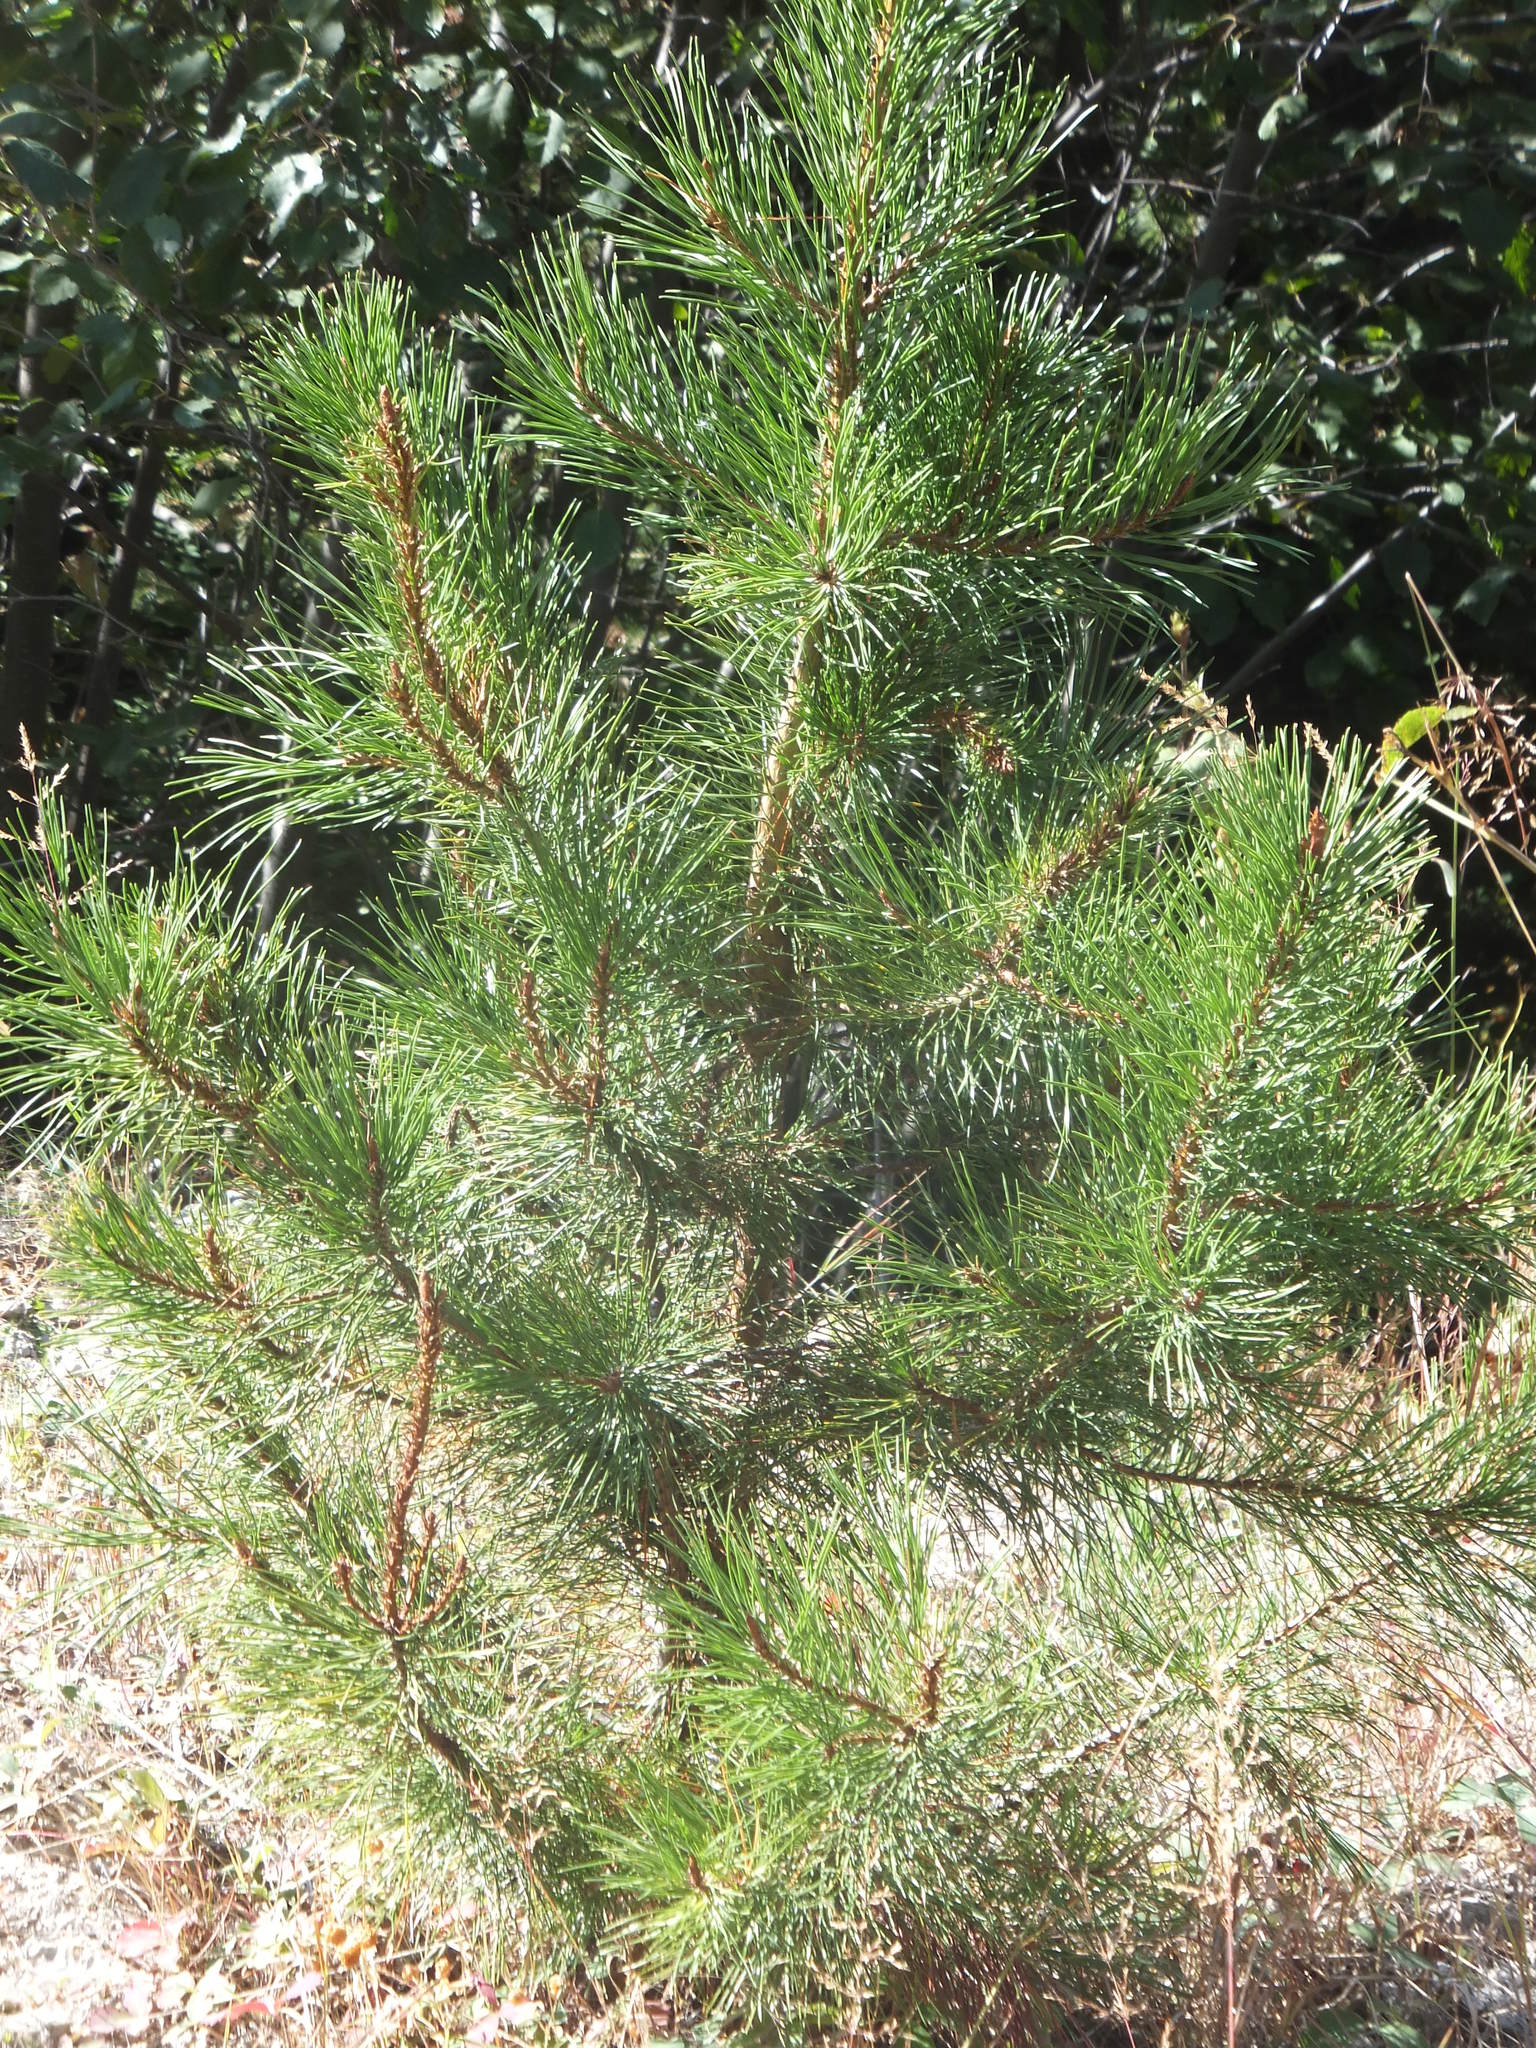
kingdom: Plantae
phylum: Tracheophyta
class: Pinopsida
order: Pinales
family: Pinaceae
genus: Pinus
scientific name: Pinus contorta
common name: Lodgepole pine
